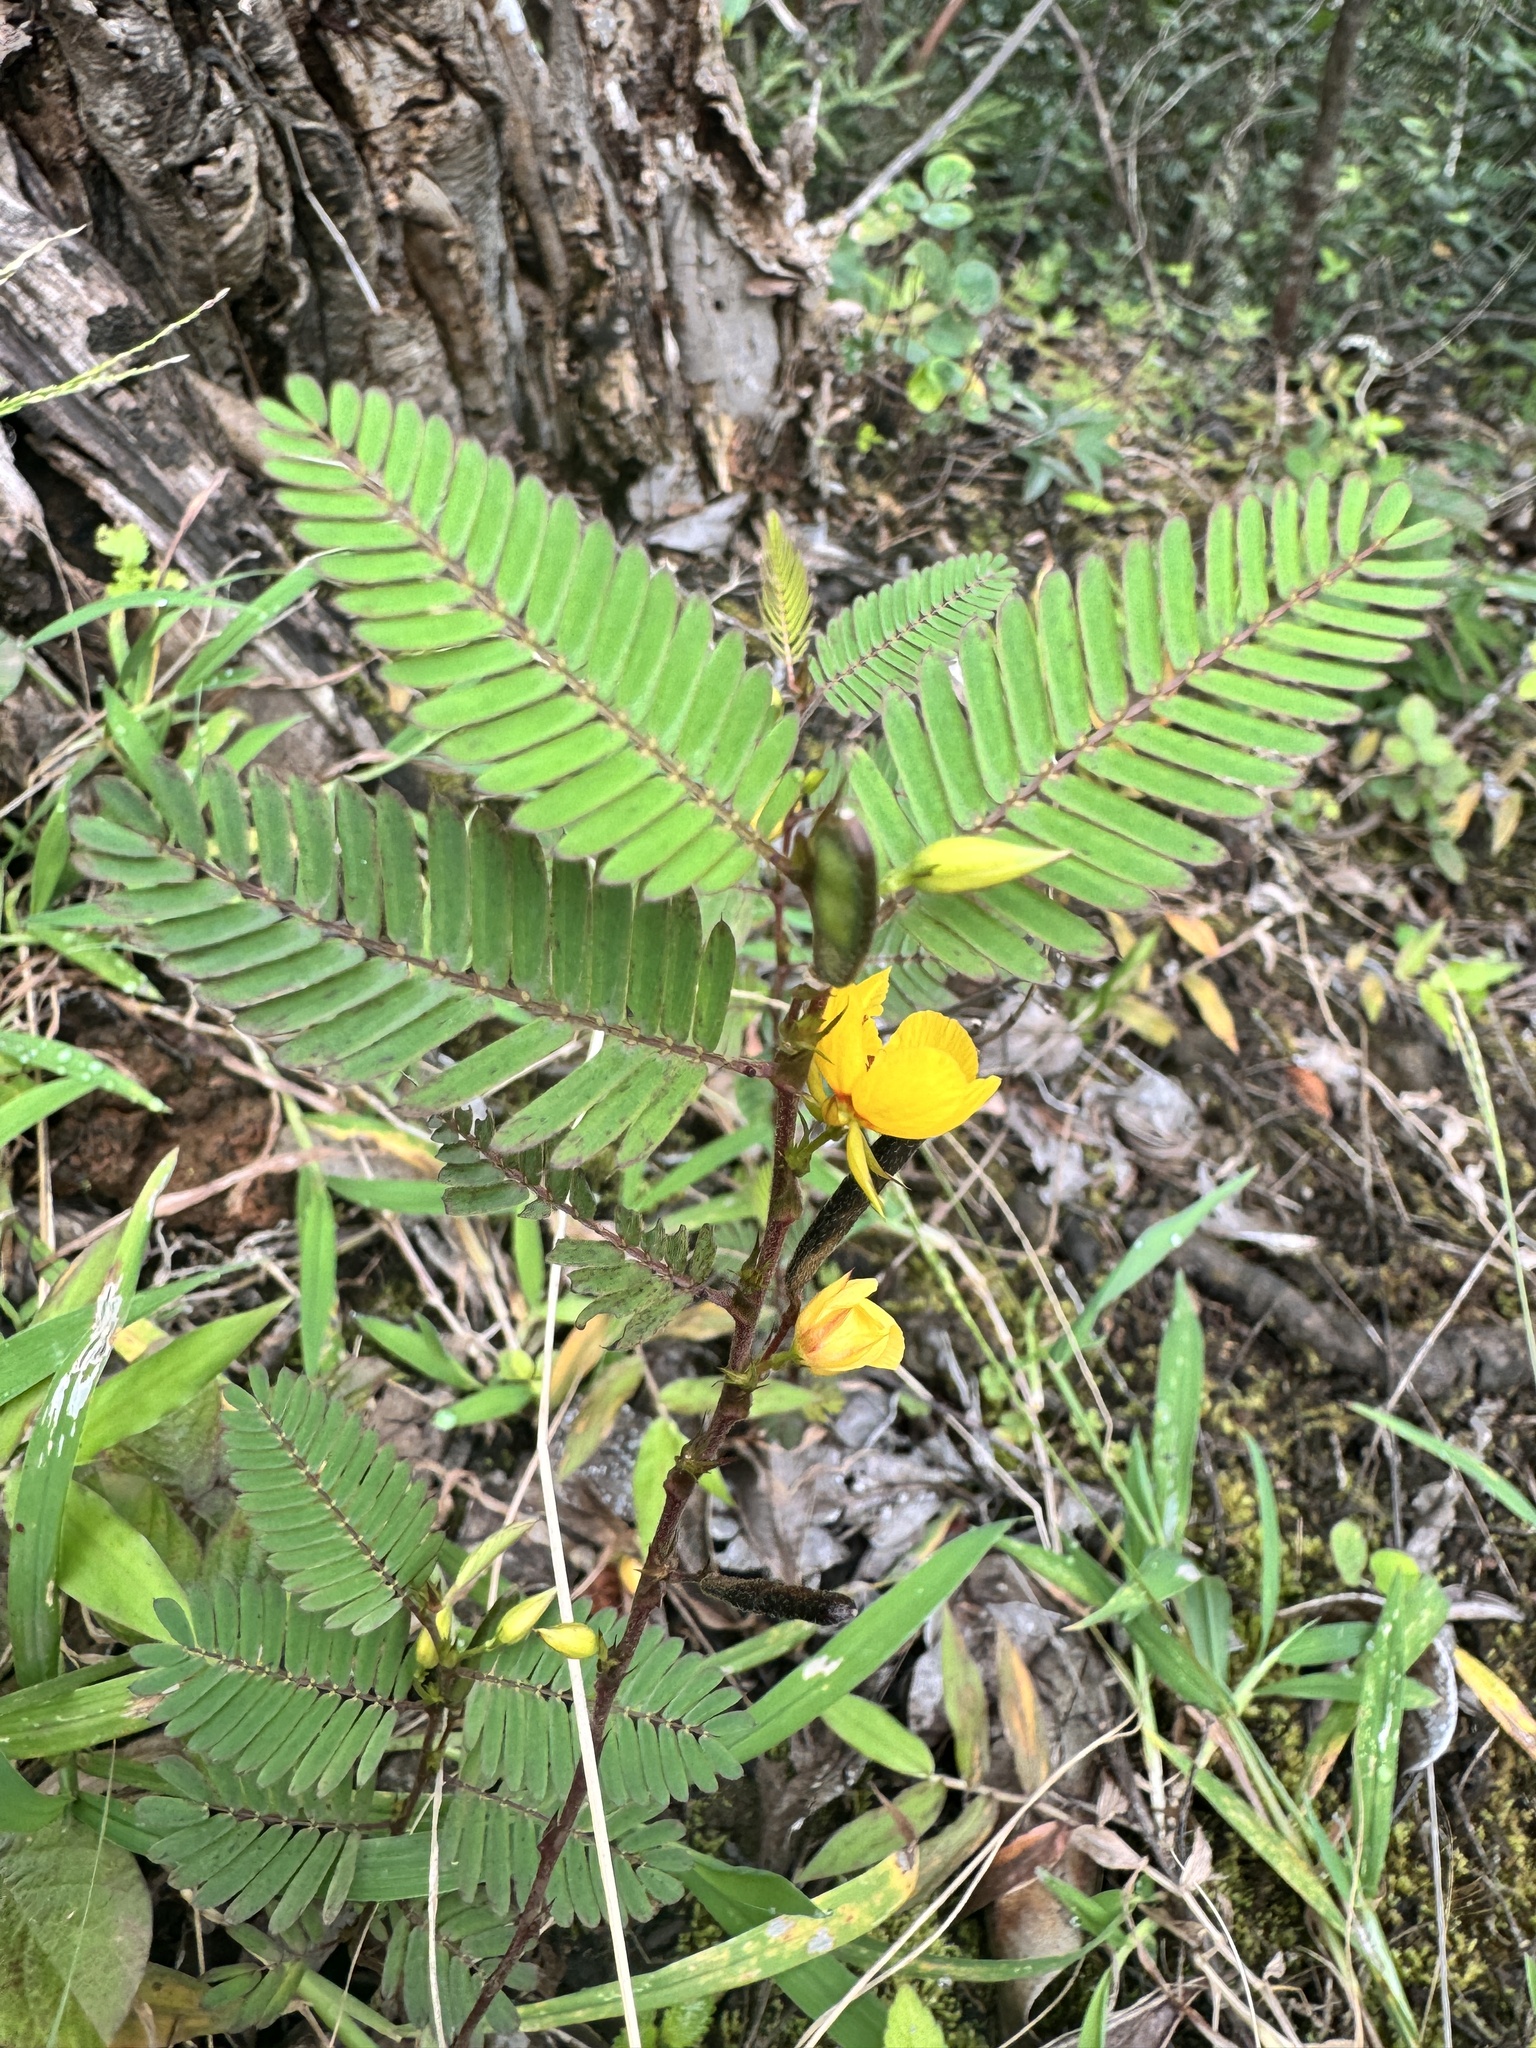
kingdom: Plantae
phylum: Tracheophyta
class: Magnoliopsida
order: Fabales
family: Fabaceae
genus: Chamaecrista
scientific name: Chamaecrista nictitans
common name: Sensitive cassia
